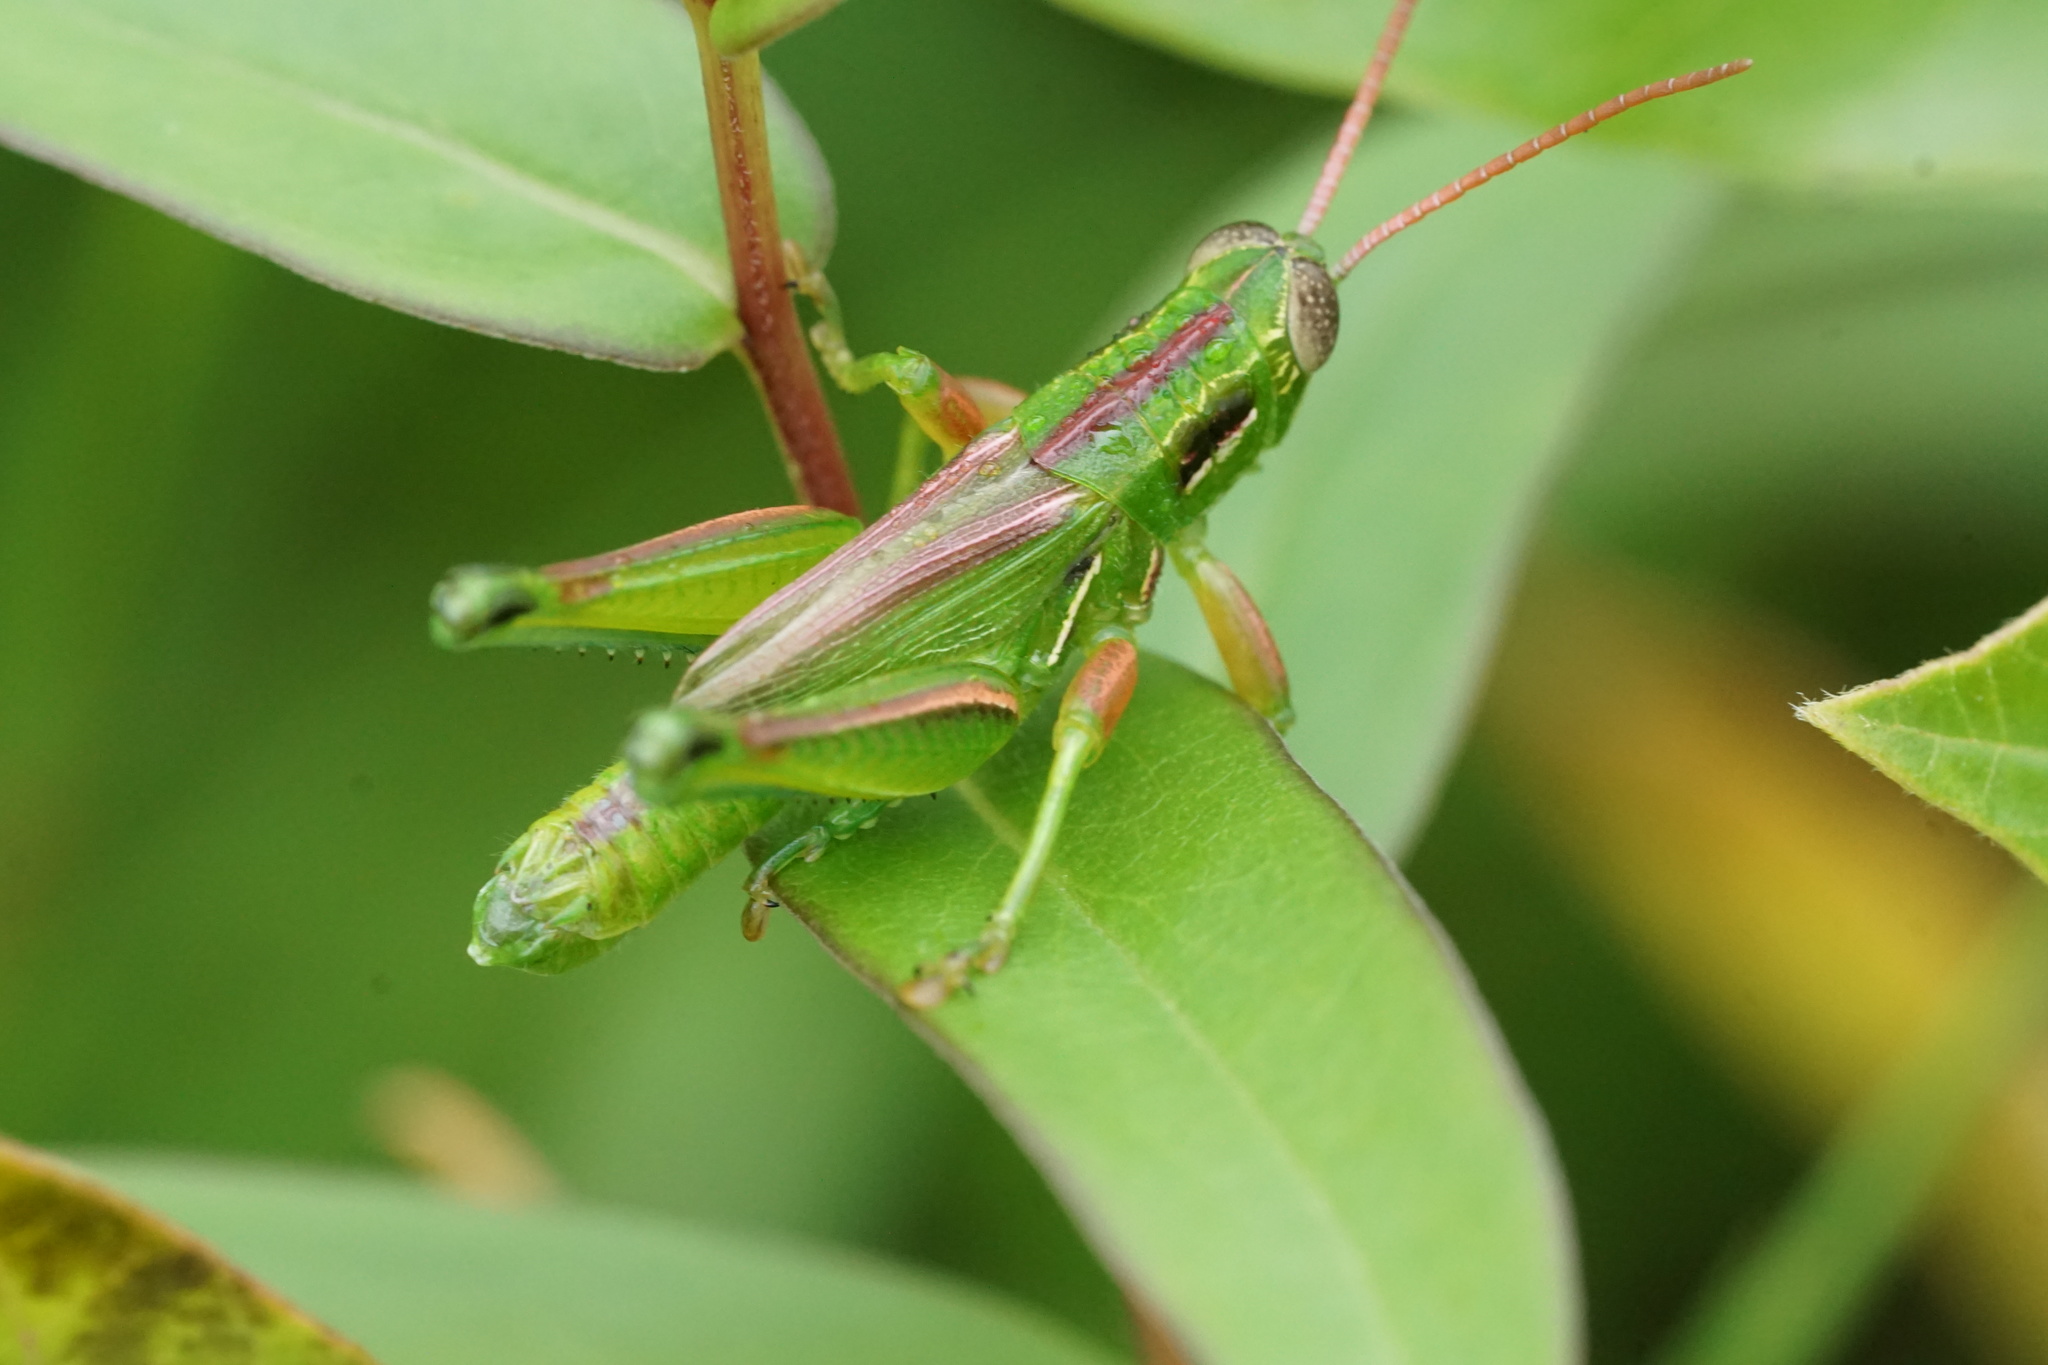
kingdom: Animalia
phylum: Arthropoda
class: Insecta
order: Orthoptera
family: Acrididae
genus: Hesperotettix
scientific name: Hesperotettix viridis
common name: Meadow purple-striped grasshopper
